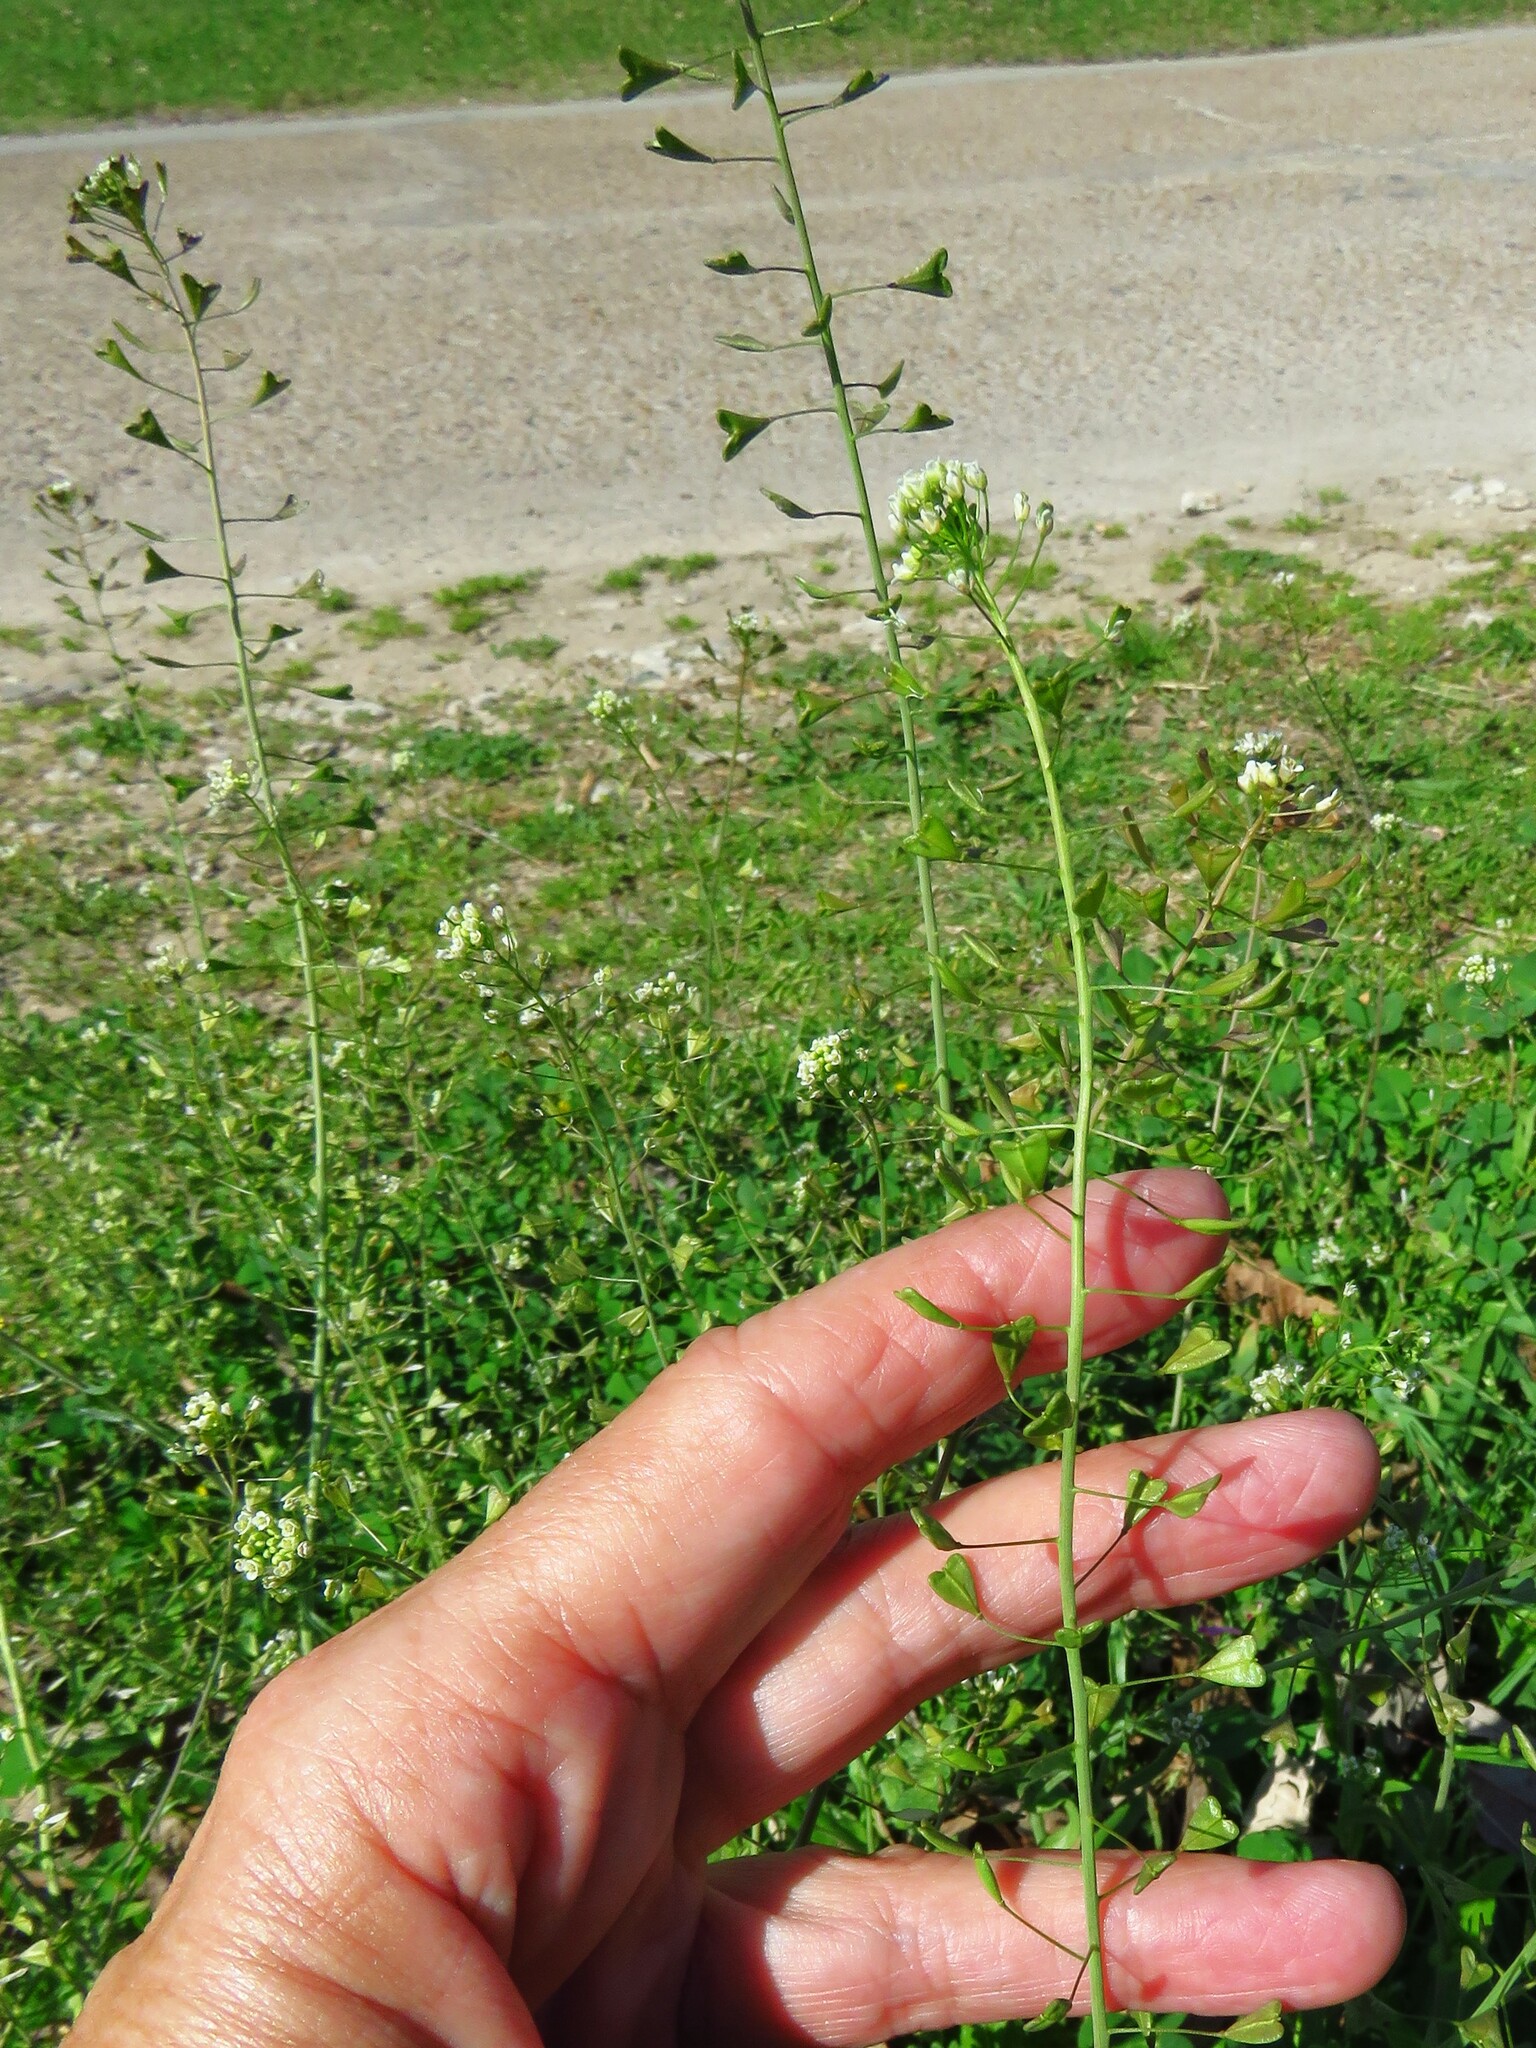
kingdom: Plantae
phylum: Tracheophyta
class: Magnoliopsida
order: Brassicales
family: Brassicaceae
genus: Capsella
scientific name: Capsella bursa-pastoris
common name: Shepherd's purse
